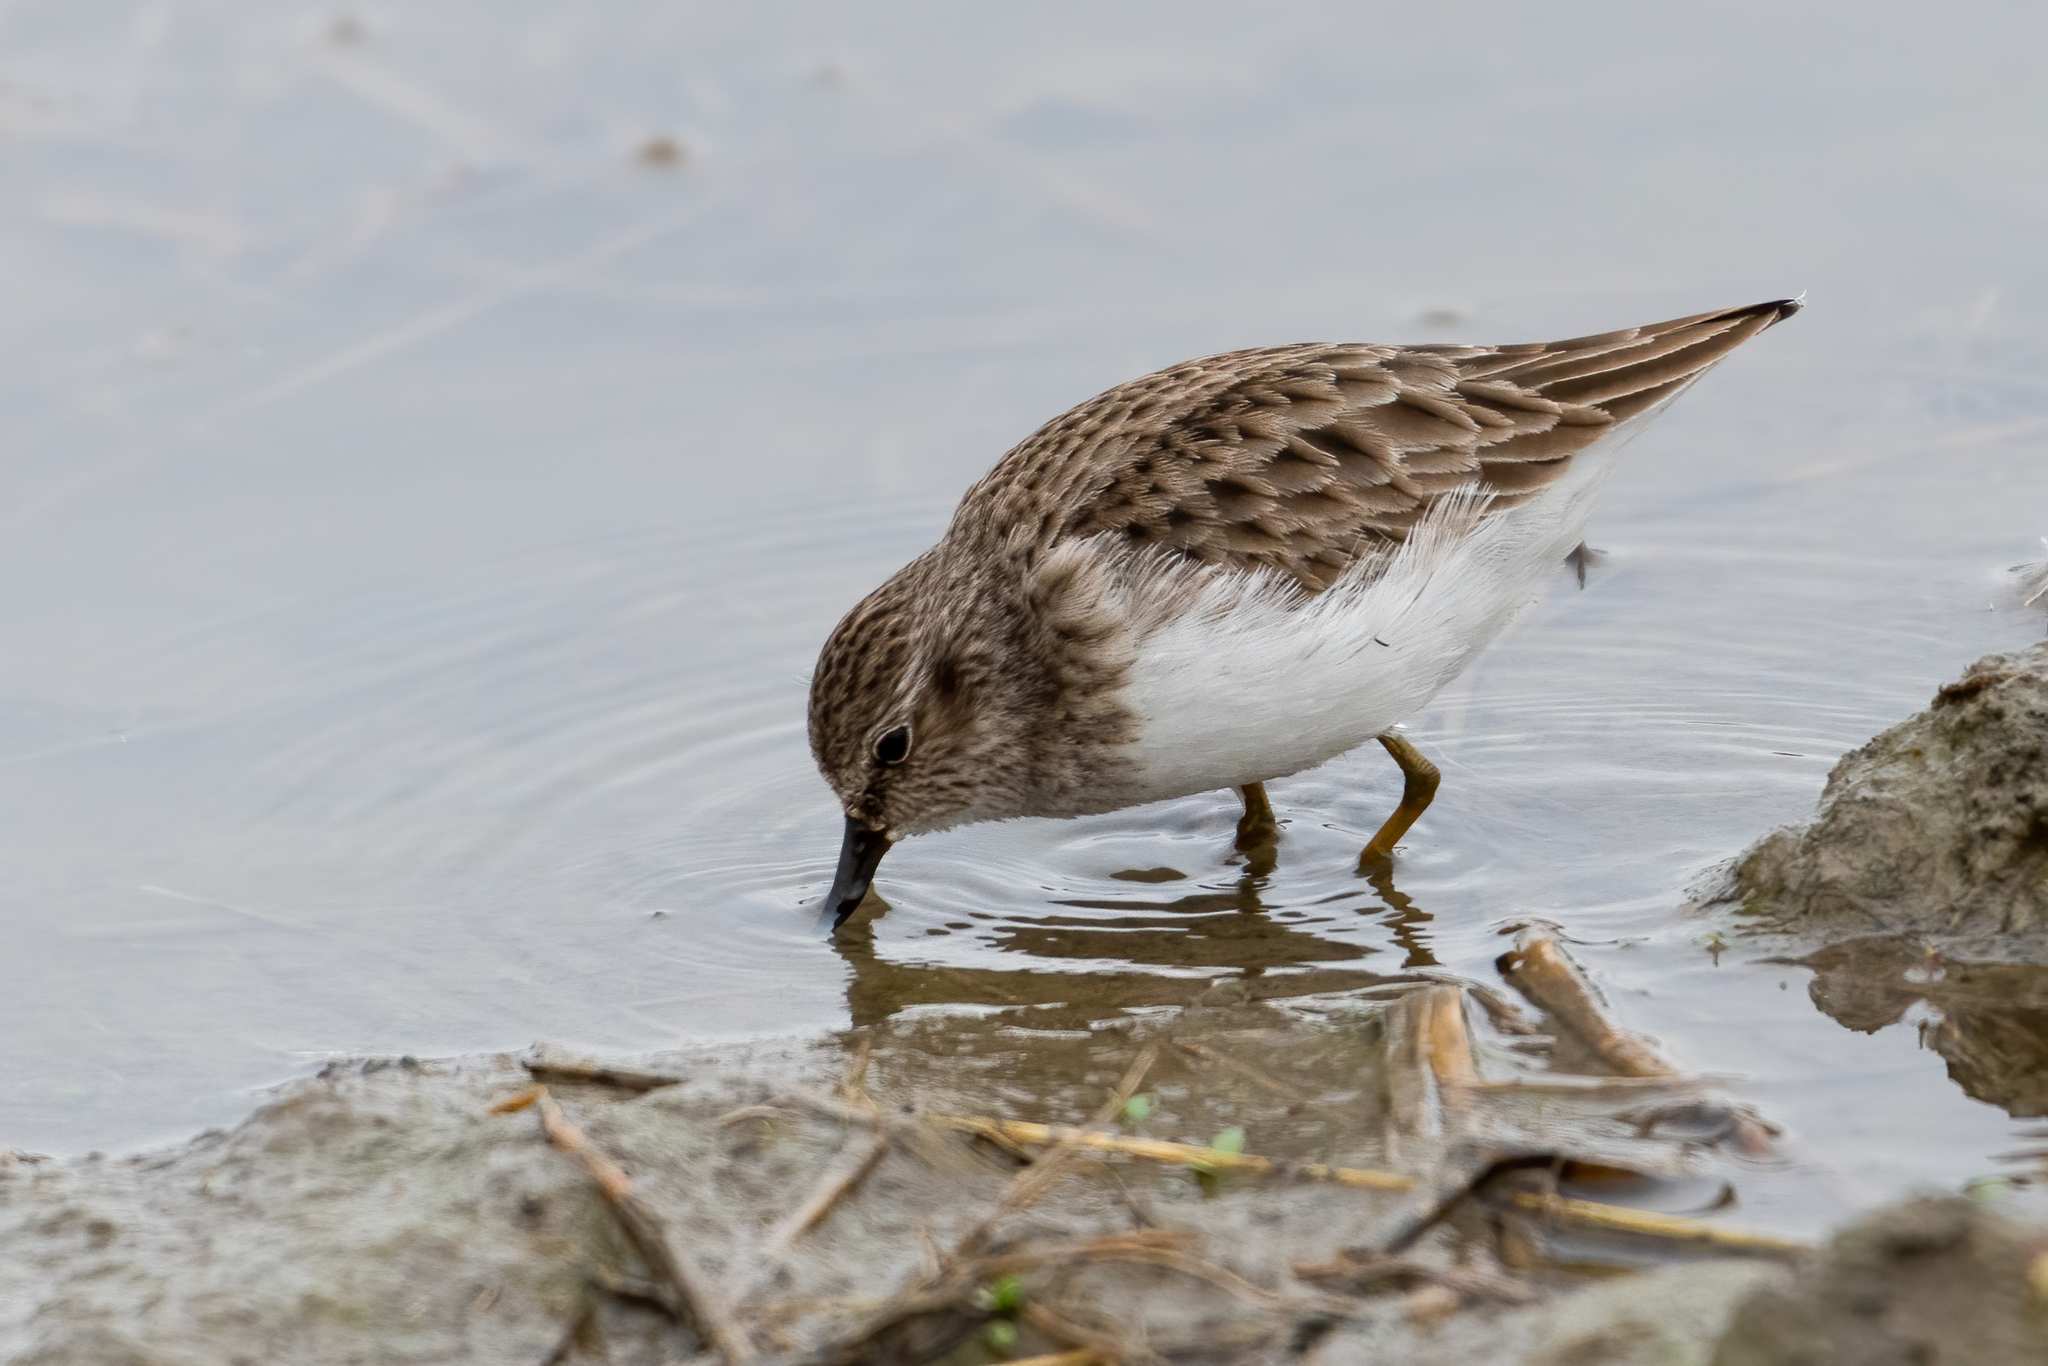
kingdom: Animalia
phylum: Chordata
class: Aves
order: Charadriiformes
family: Scolopacidae
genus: Calidris
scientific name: Calidris minutilla
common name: Least sandpiper
